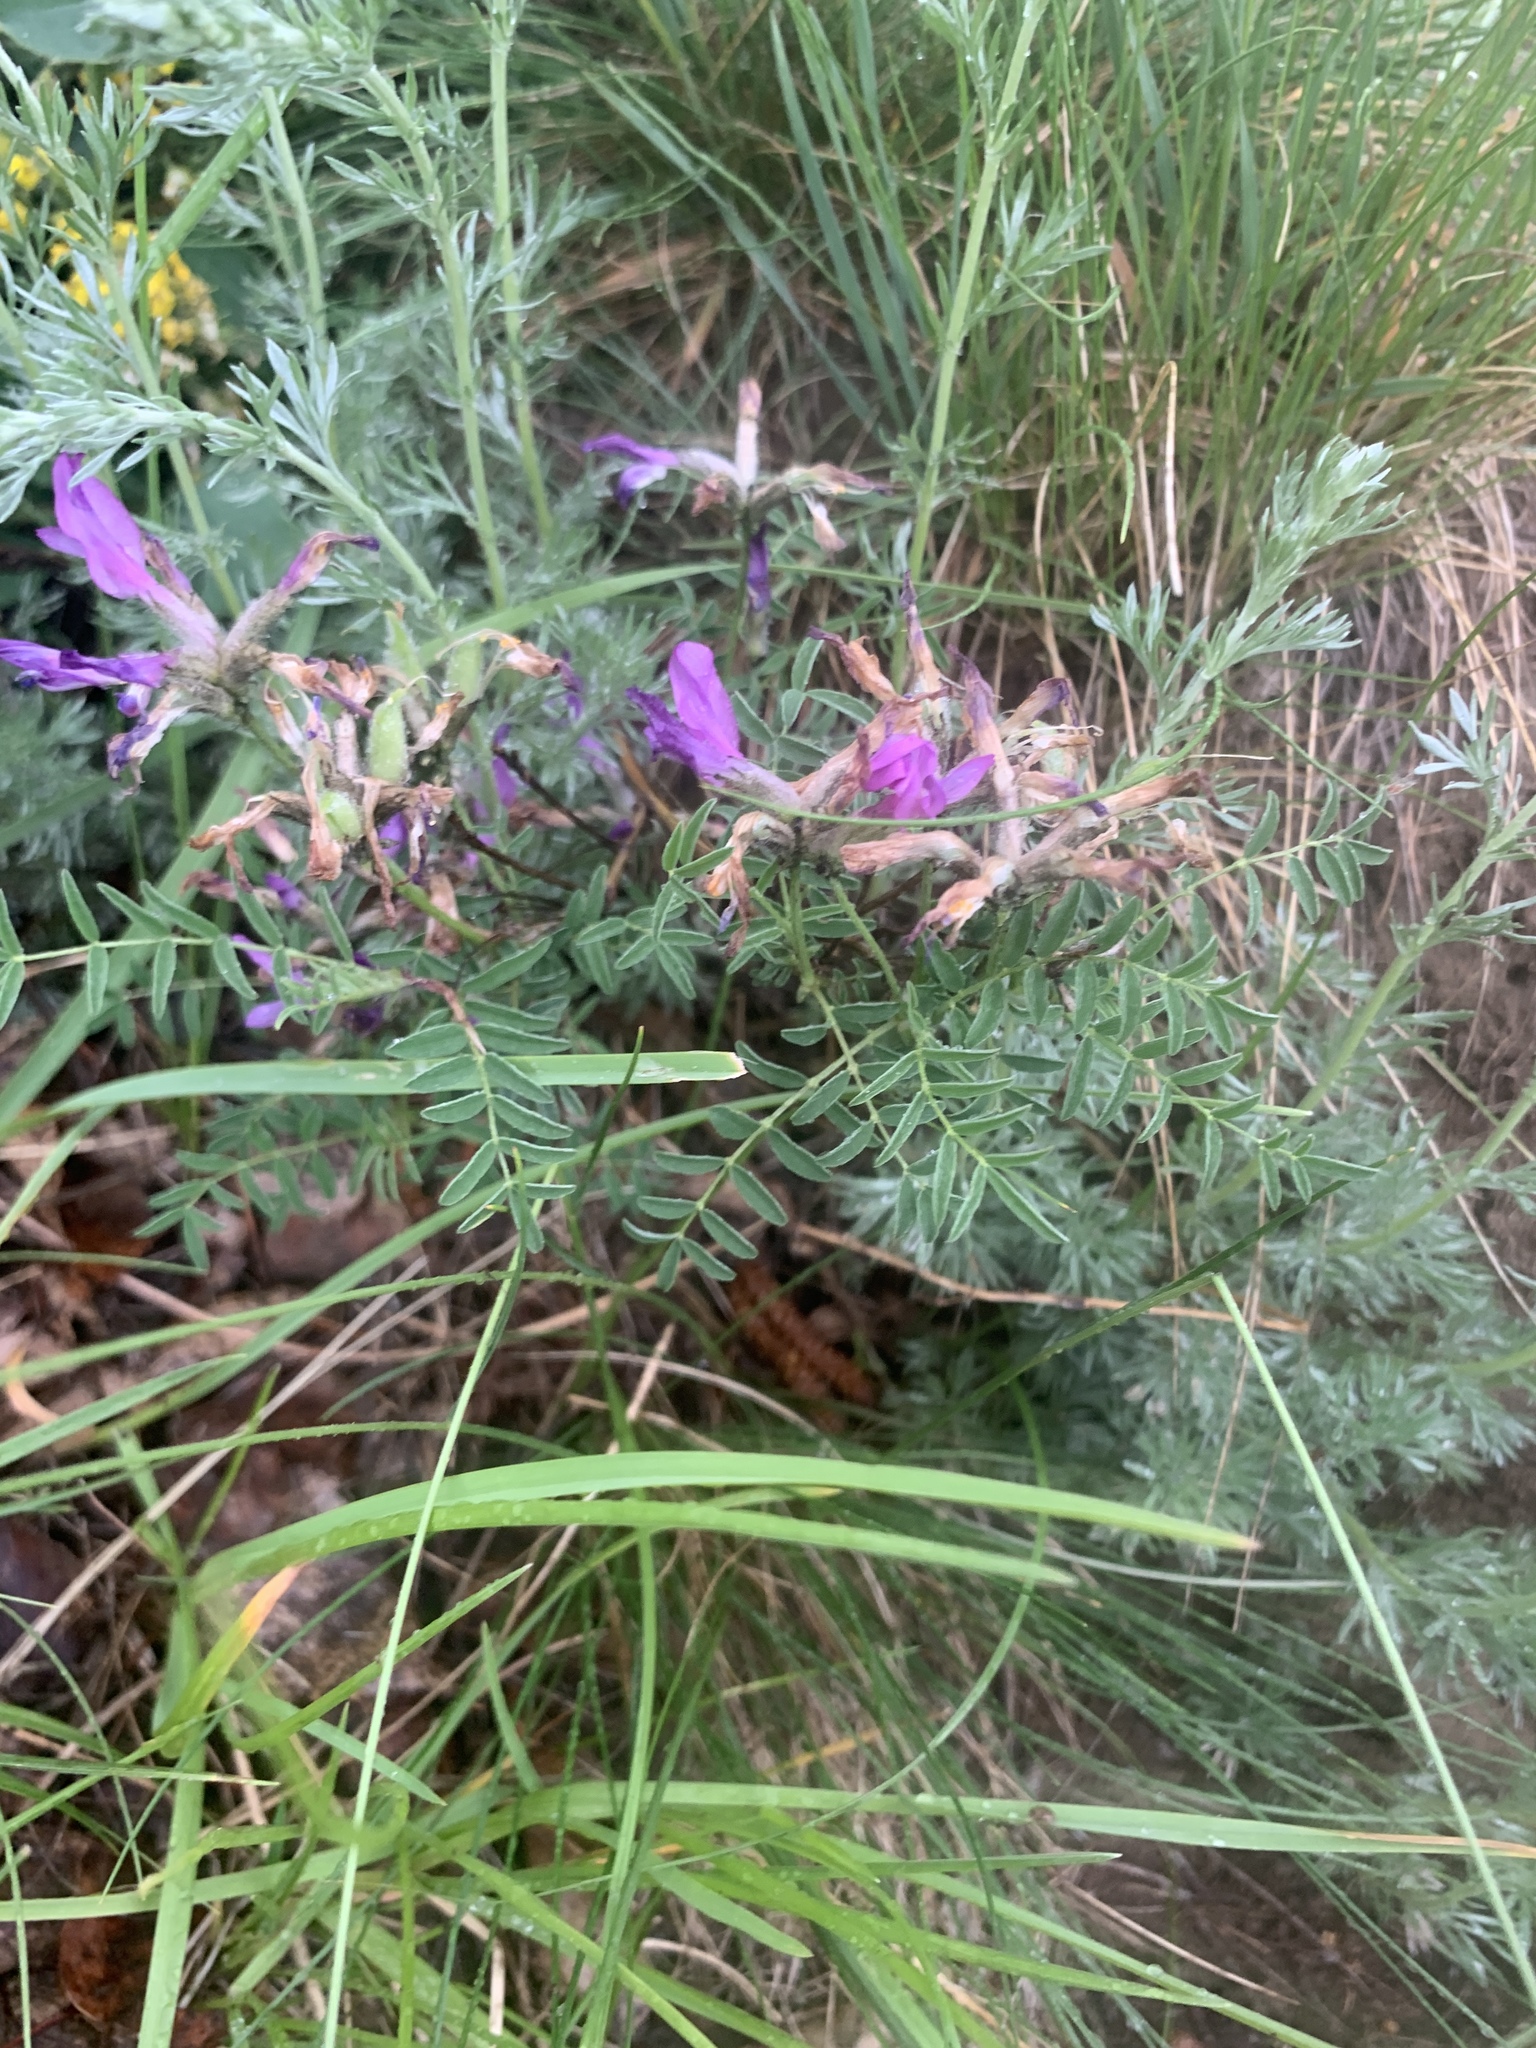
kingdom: Plantae
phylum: Tracheophyta
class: Magnoliopsida
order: Fabales
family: Fabaceae
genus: Astragalus
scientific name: Astragalus syriacus
